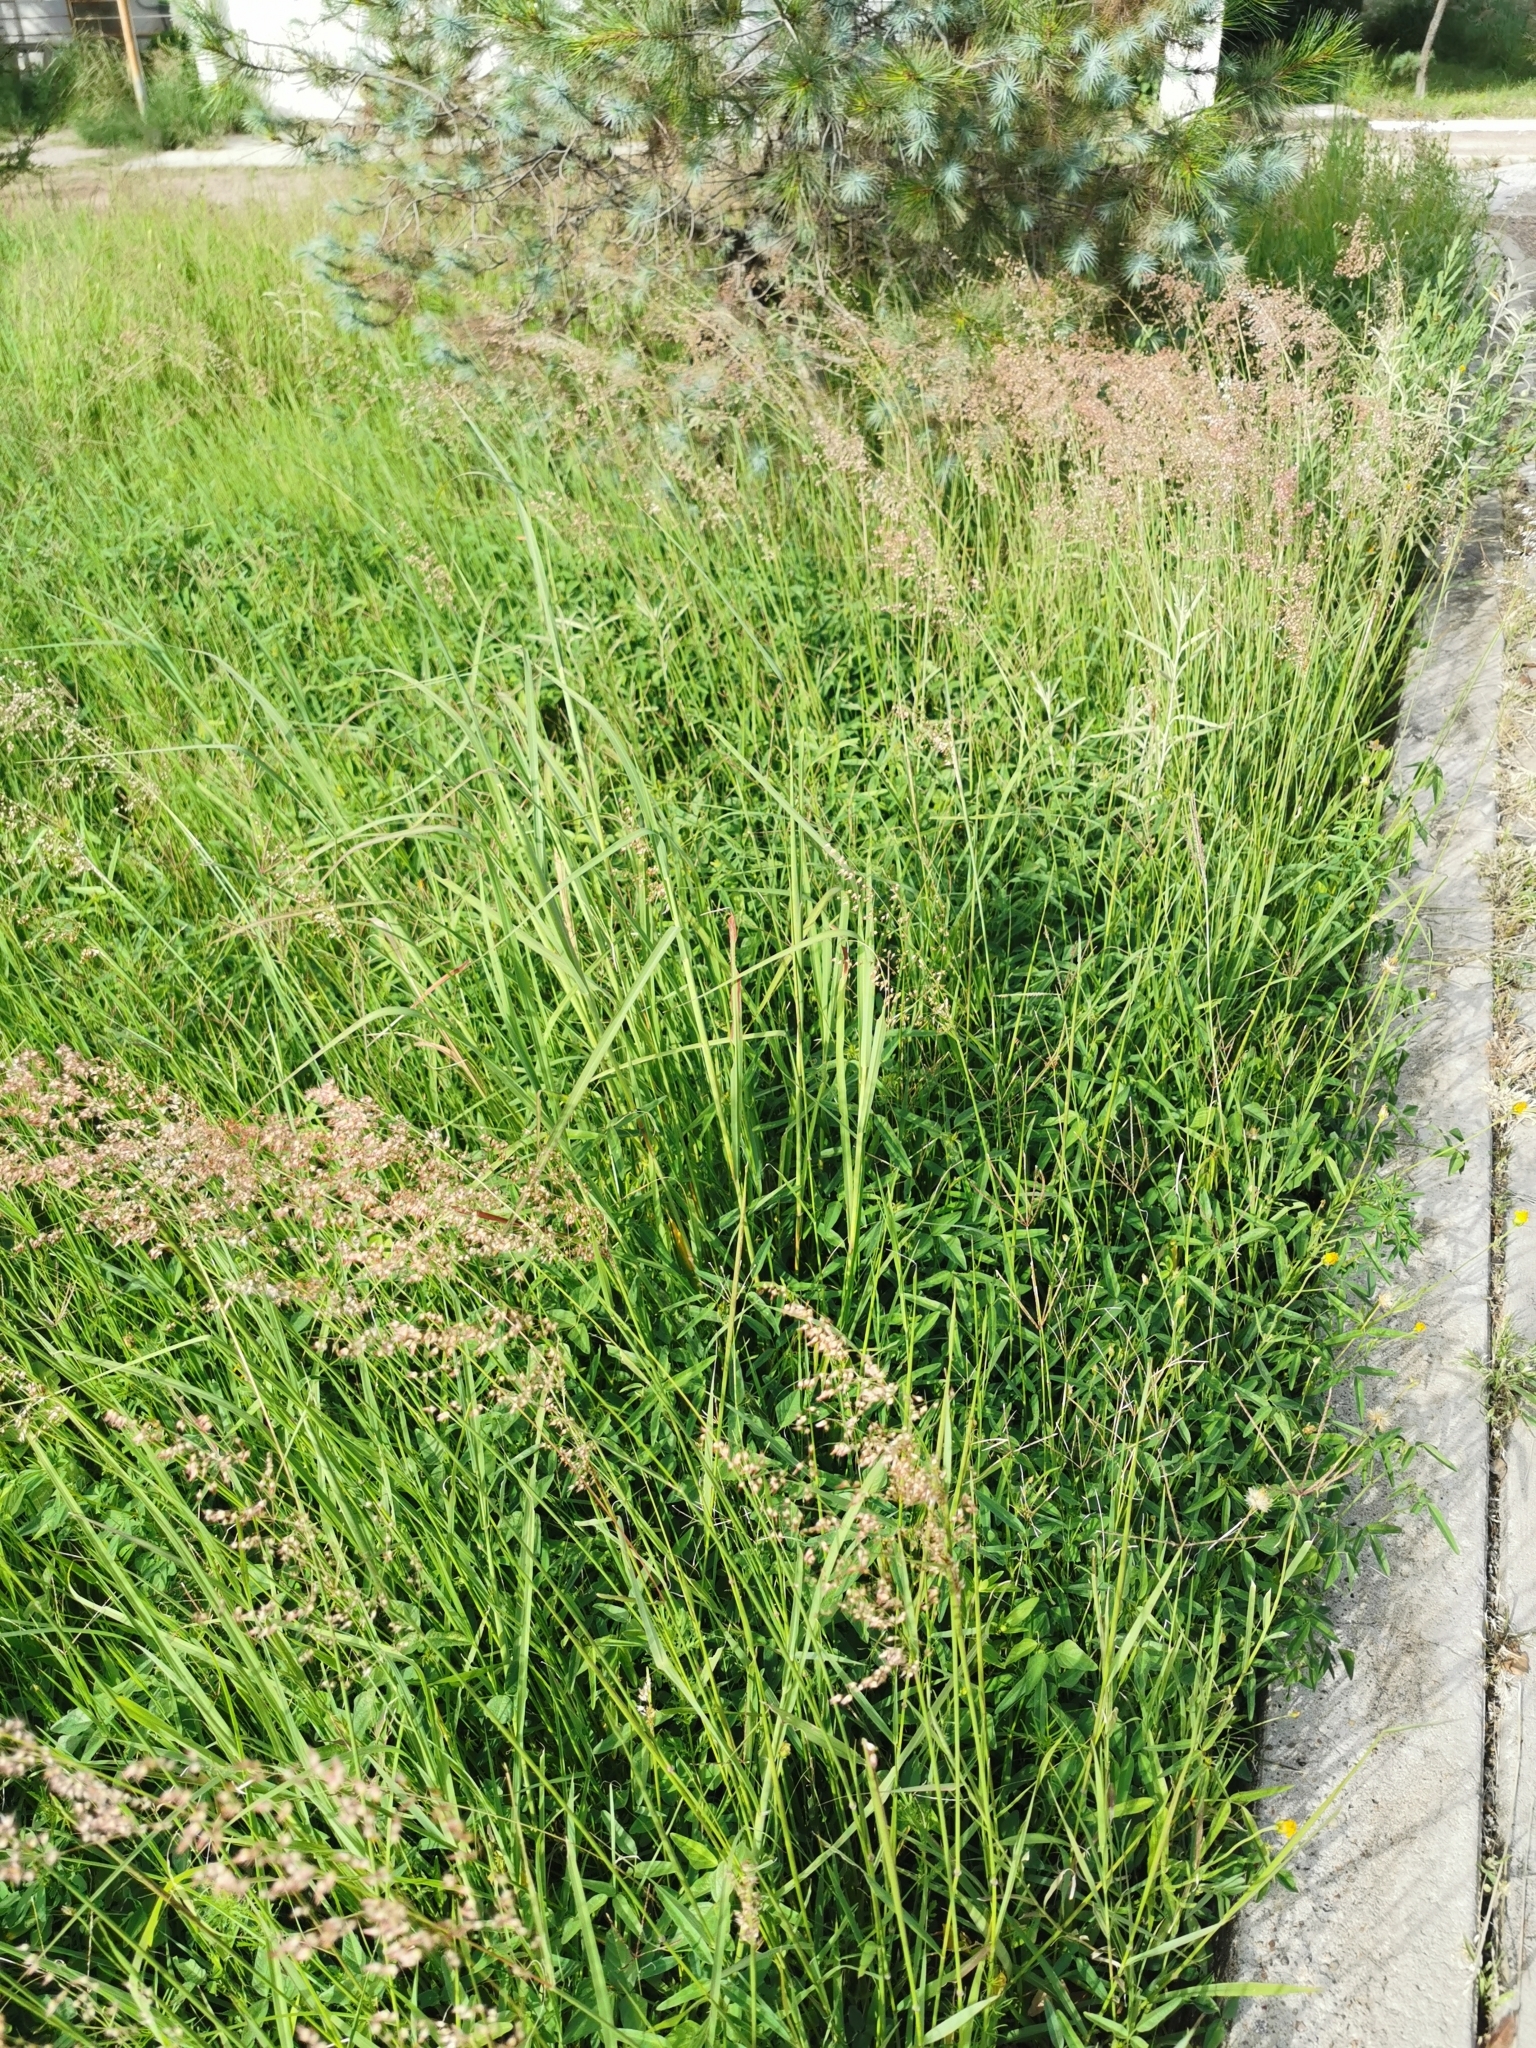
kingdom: Plantae
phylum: Tracheophyta
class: Liliopsida
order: Poales
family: Poaceae
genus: Melinis
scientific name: Melinis repens
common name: Rose natal grass
